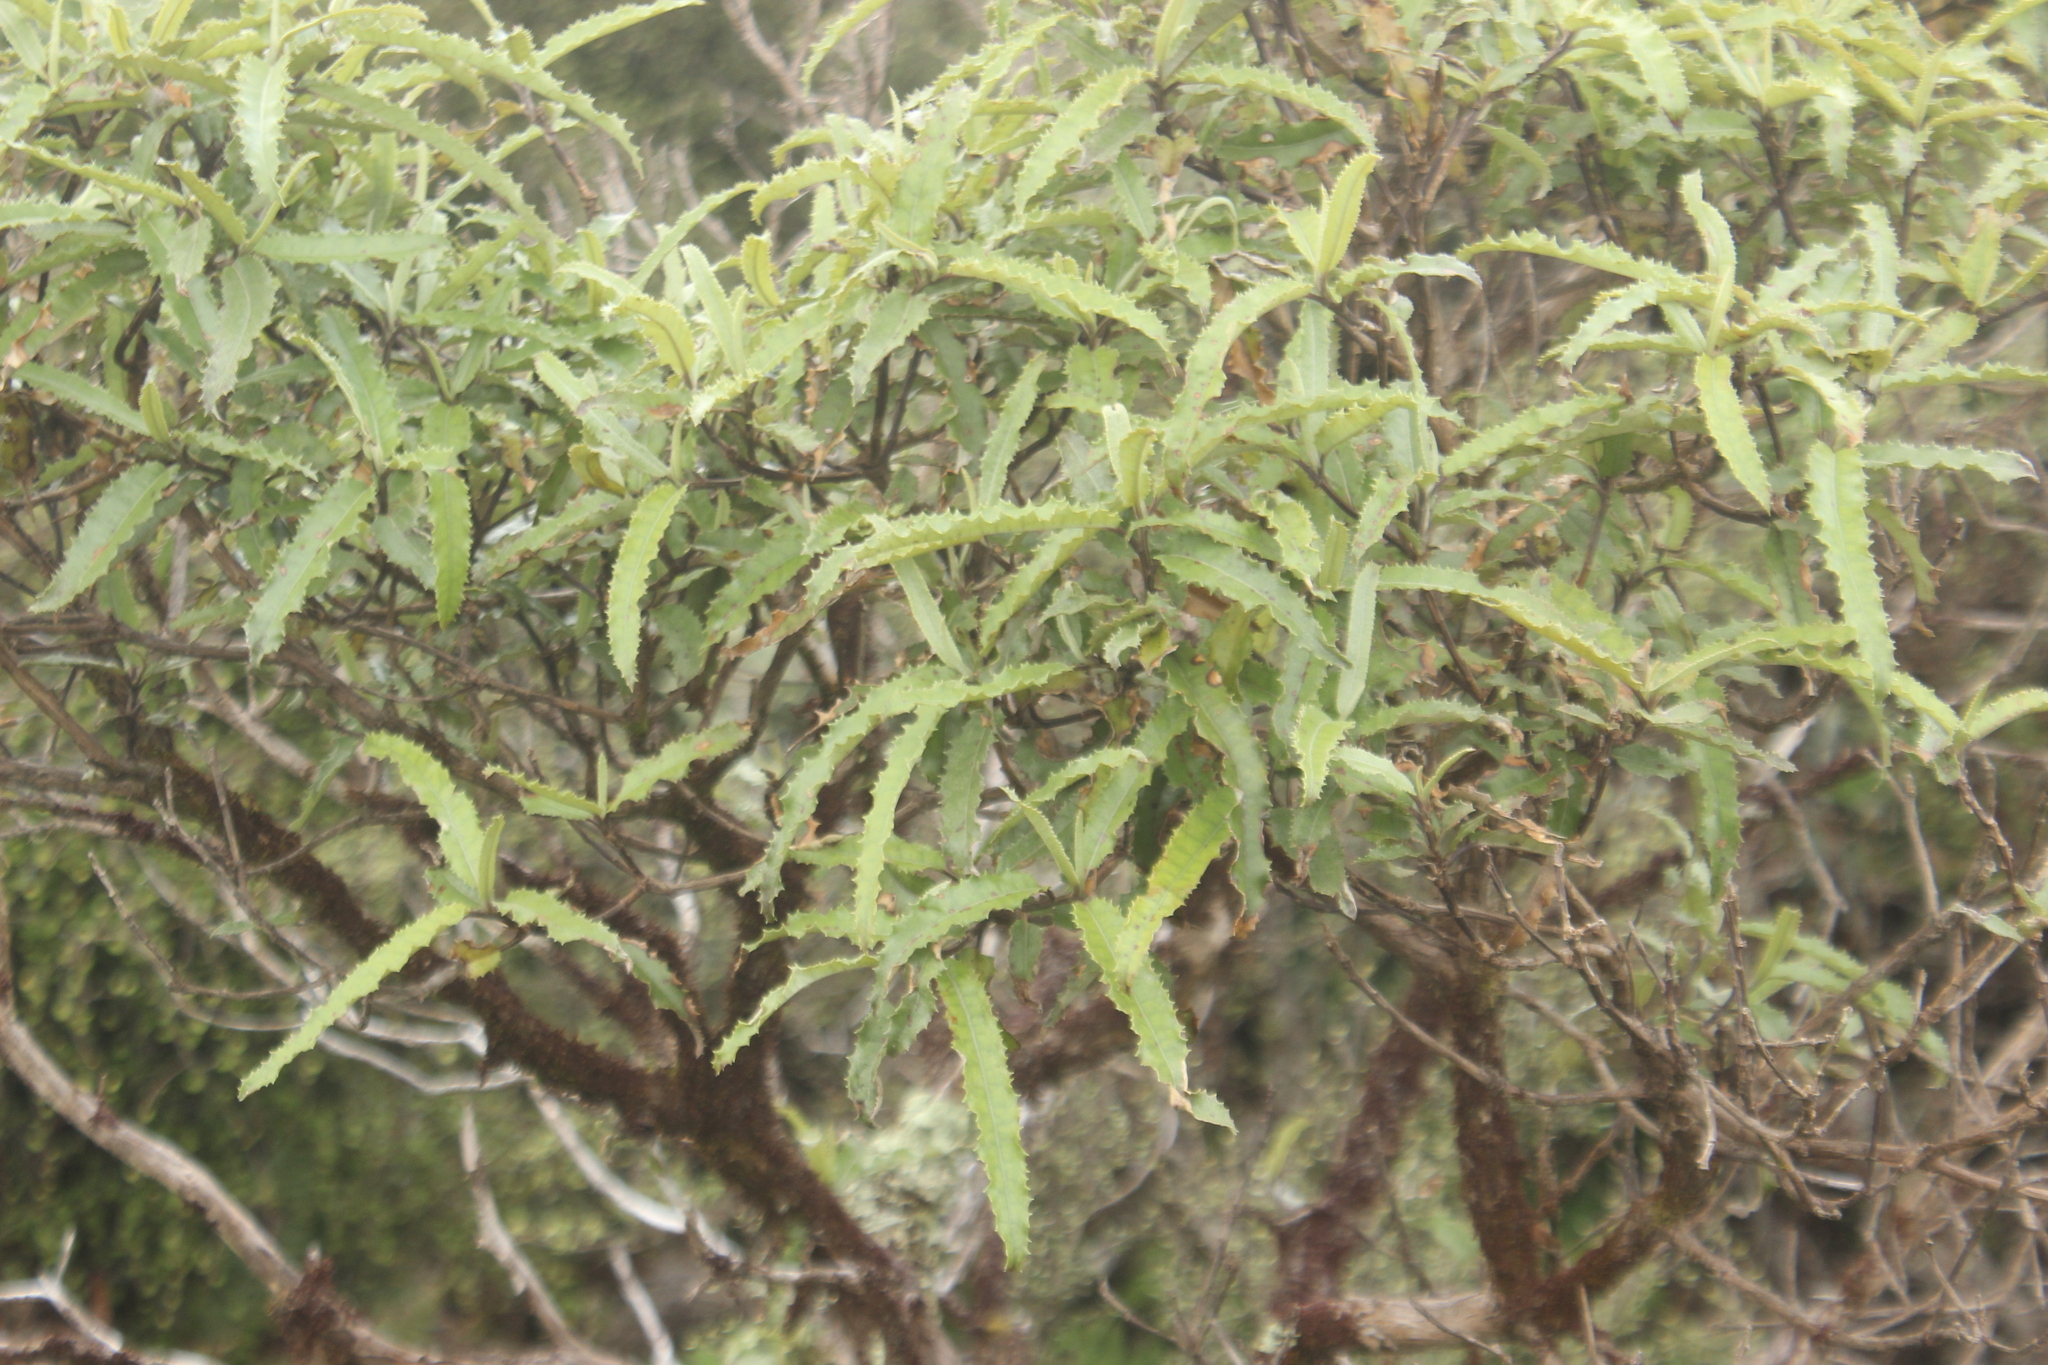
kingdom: Plantae
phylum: Tracheophyta
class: Magnoliopsida
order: Asterales
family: Asteraceae
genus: Olearia
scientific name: Olearia ilicifolia
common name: Maori-holly
